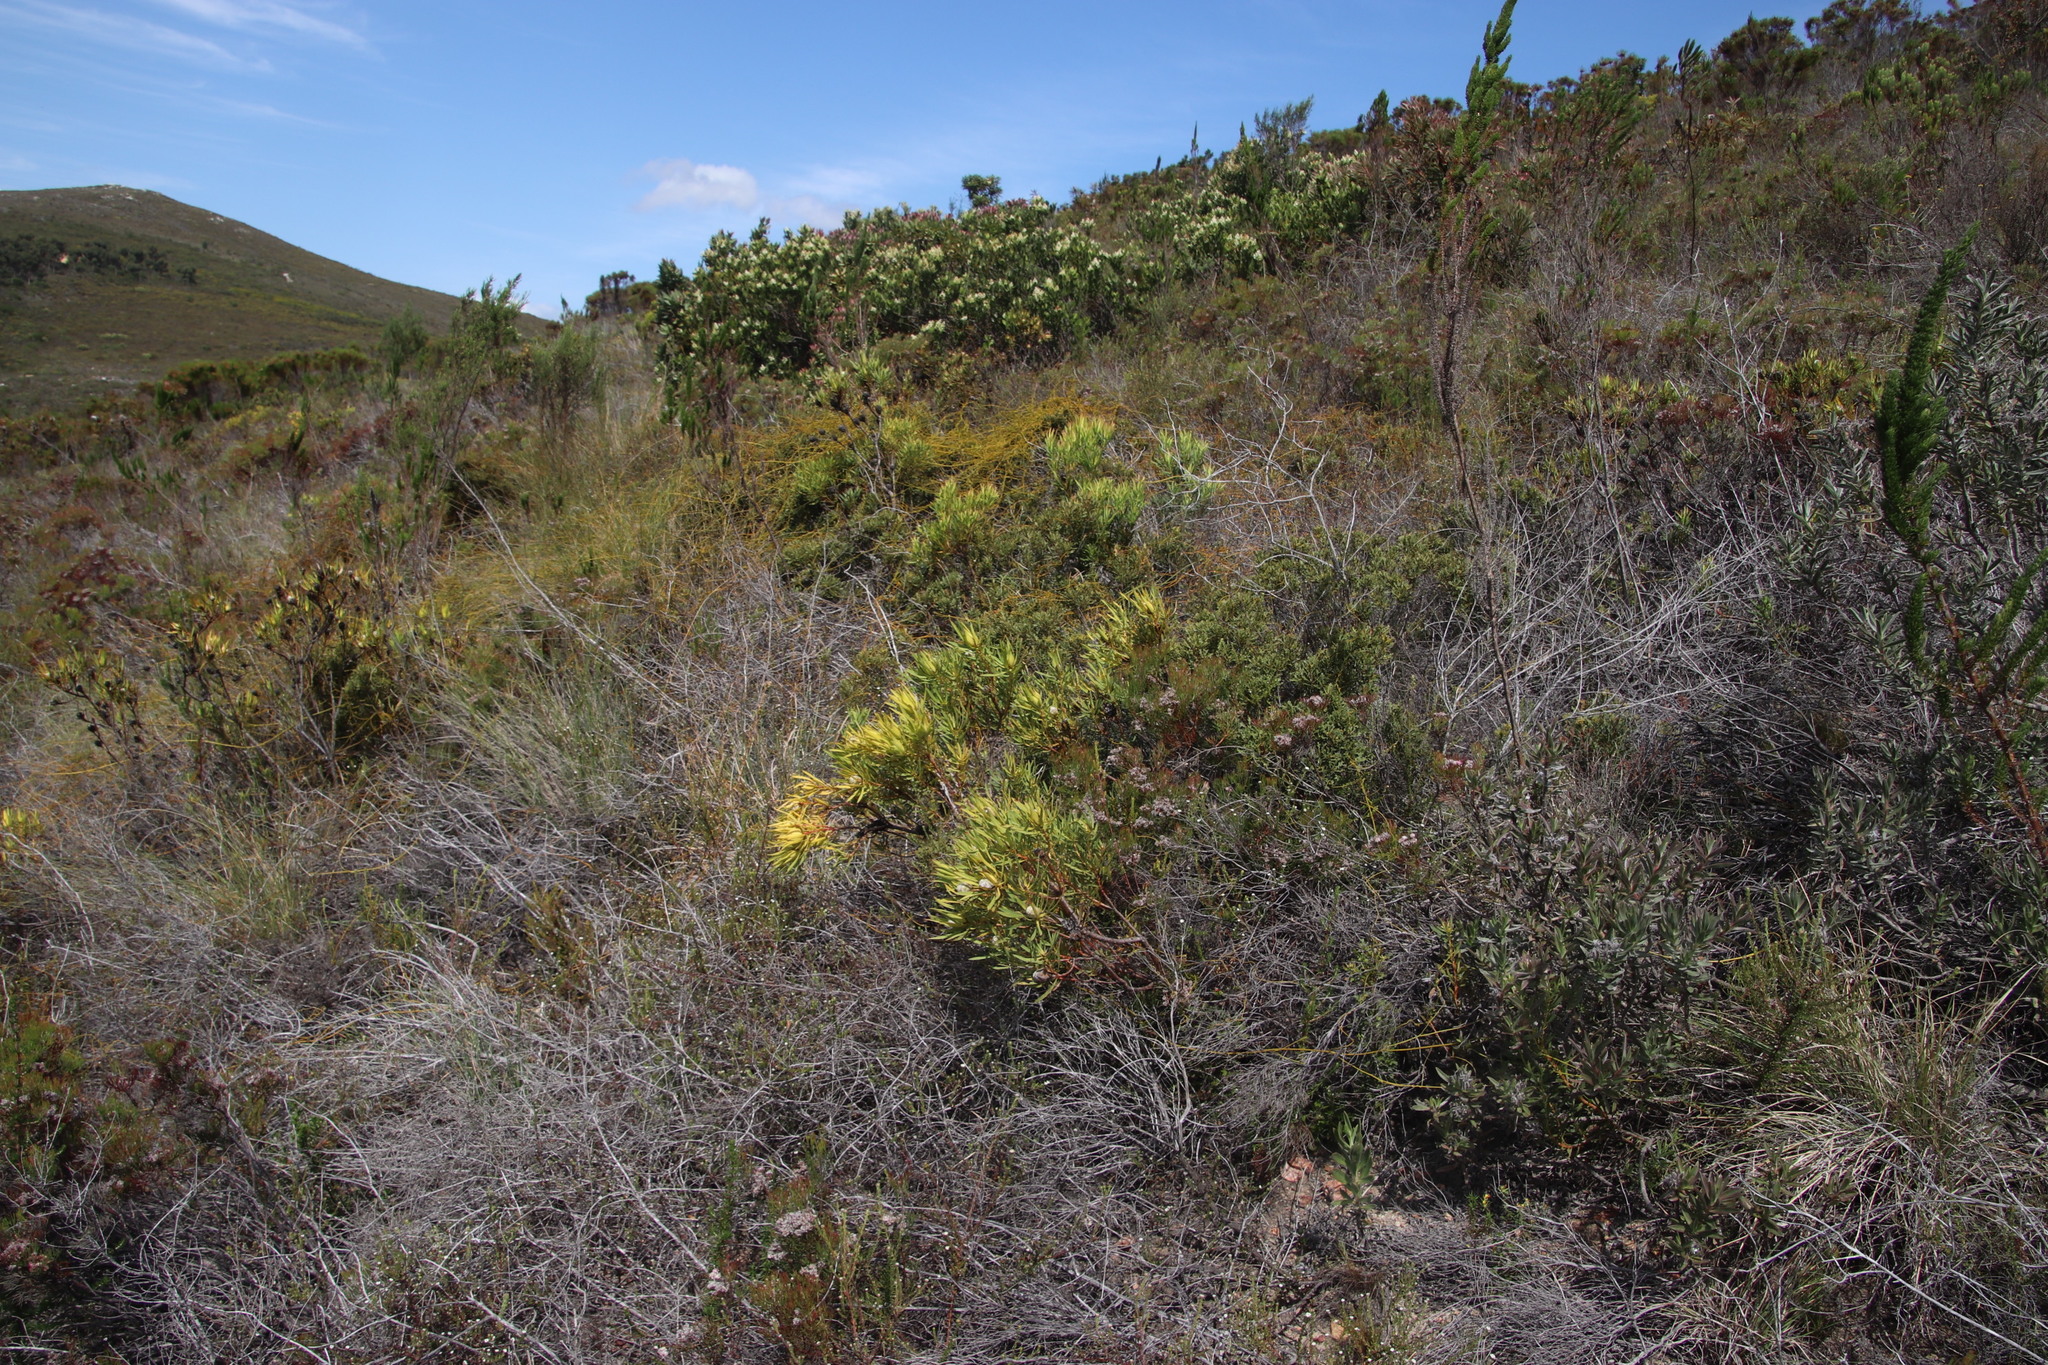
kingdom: Plantae
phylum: Tracheophyta
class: Magnoliopsida
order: Proteales
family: Proteaceae
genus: Leucadendron
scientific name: Leucadendron salignum
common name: Common sunshine conebush
